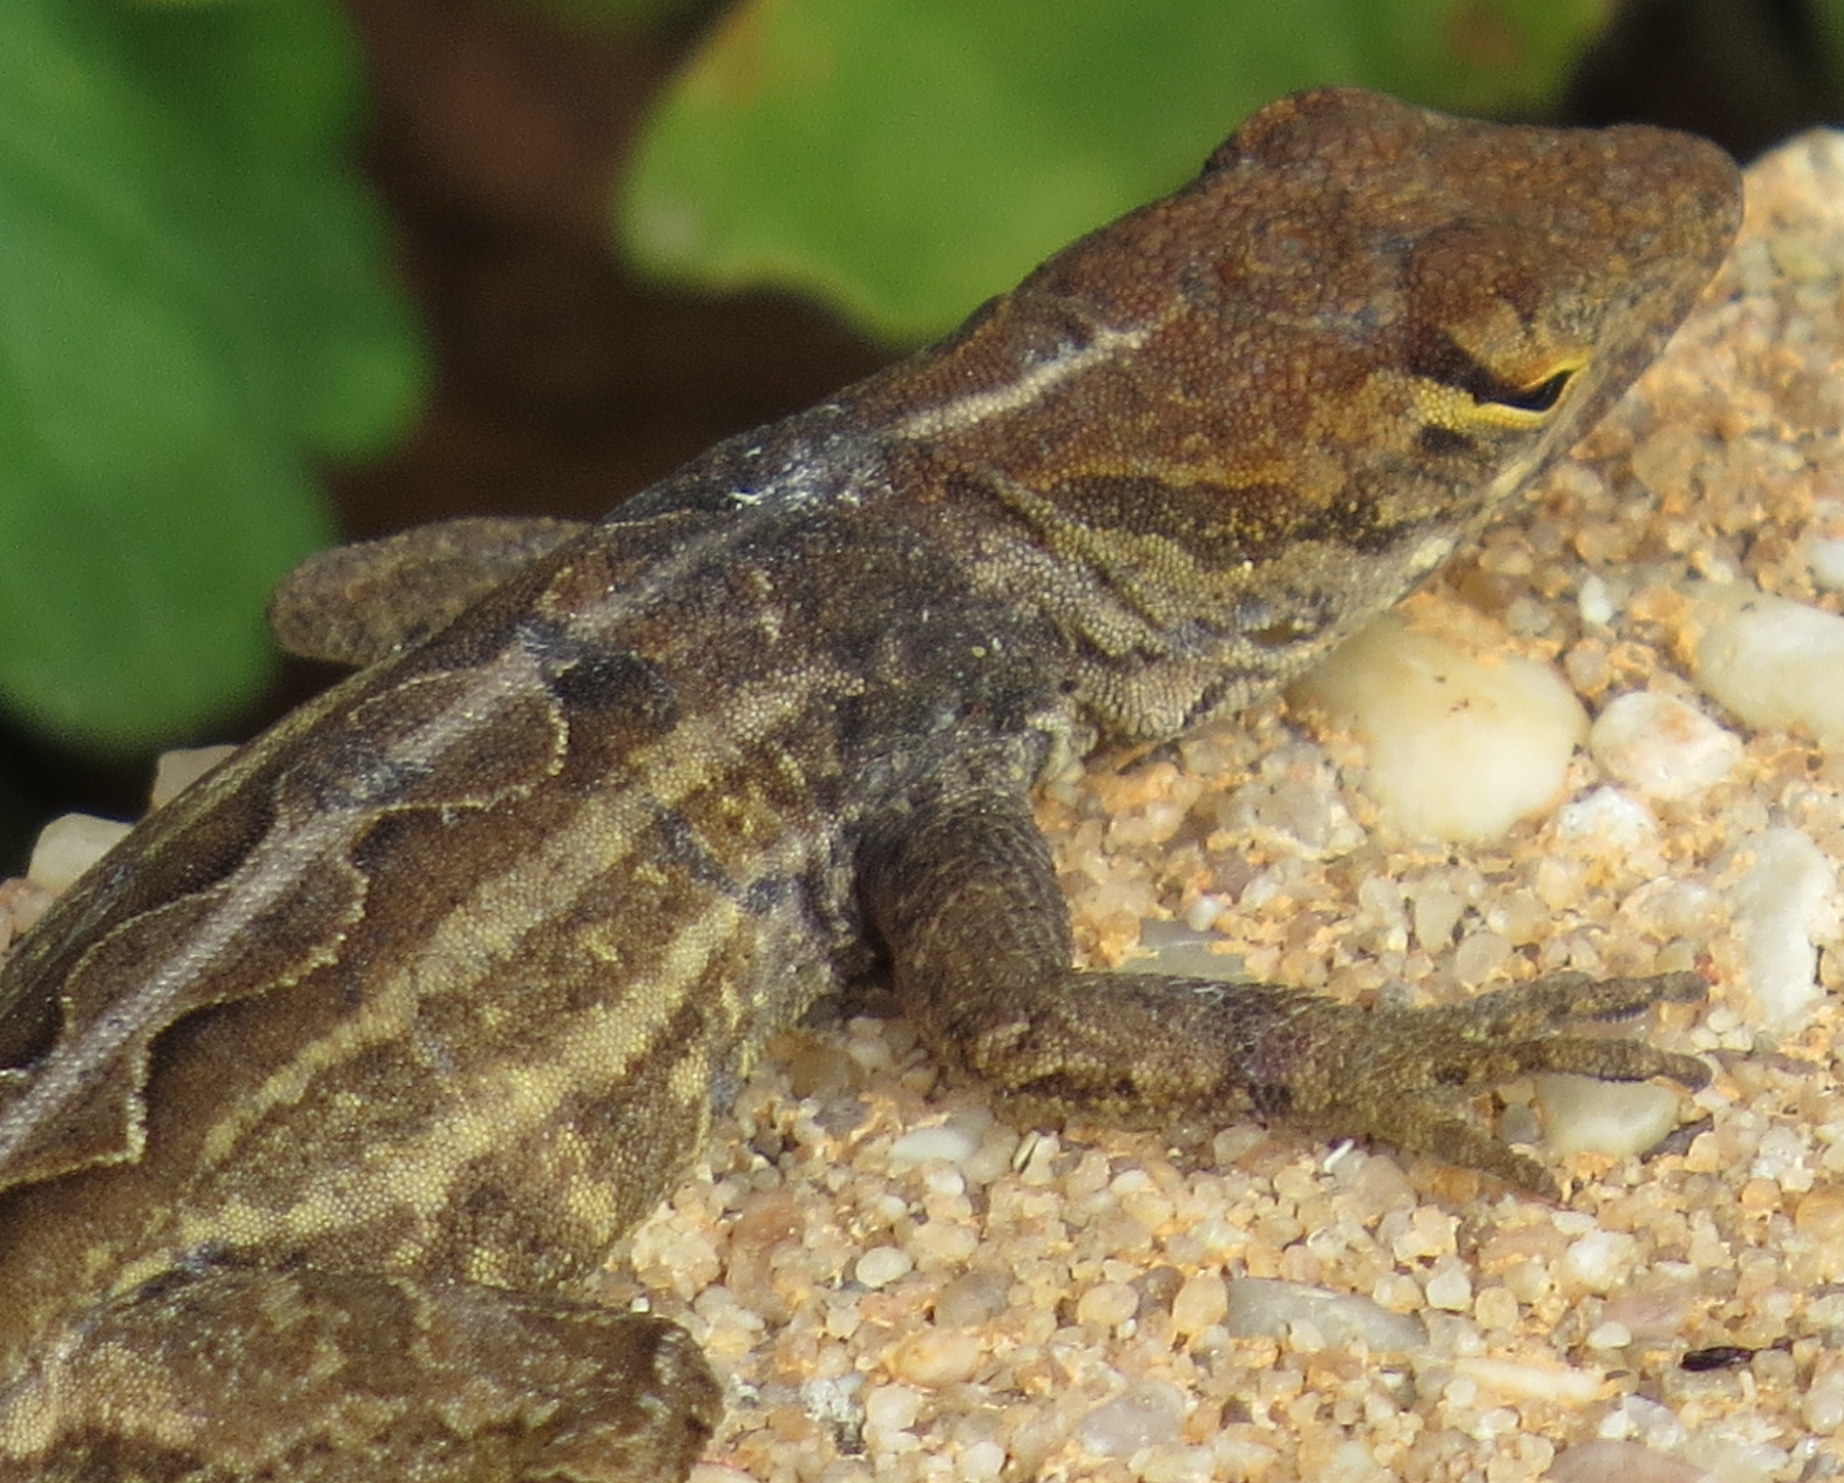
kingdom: Animalia
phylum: Chordata
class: Squamata
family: Dactyloidae
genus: Anolis
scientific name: Anolis sagrei
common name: Brown anole
